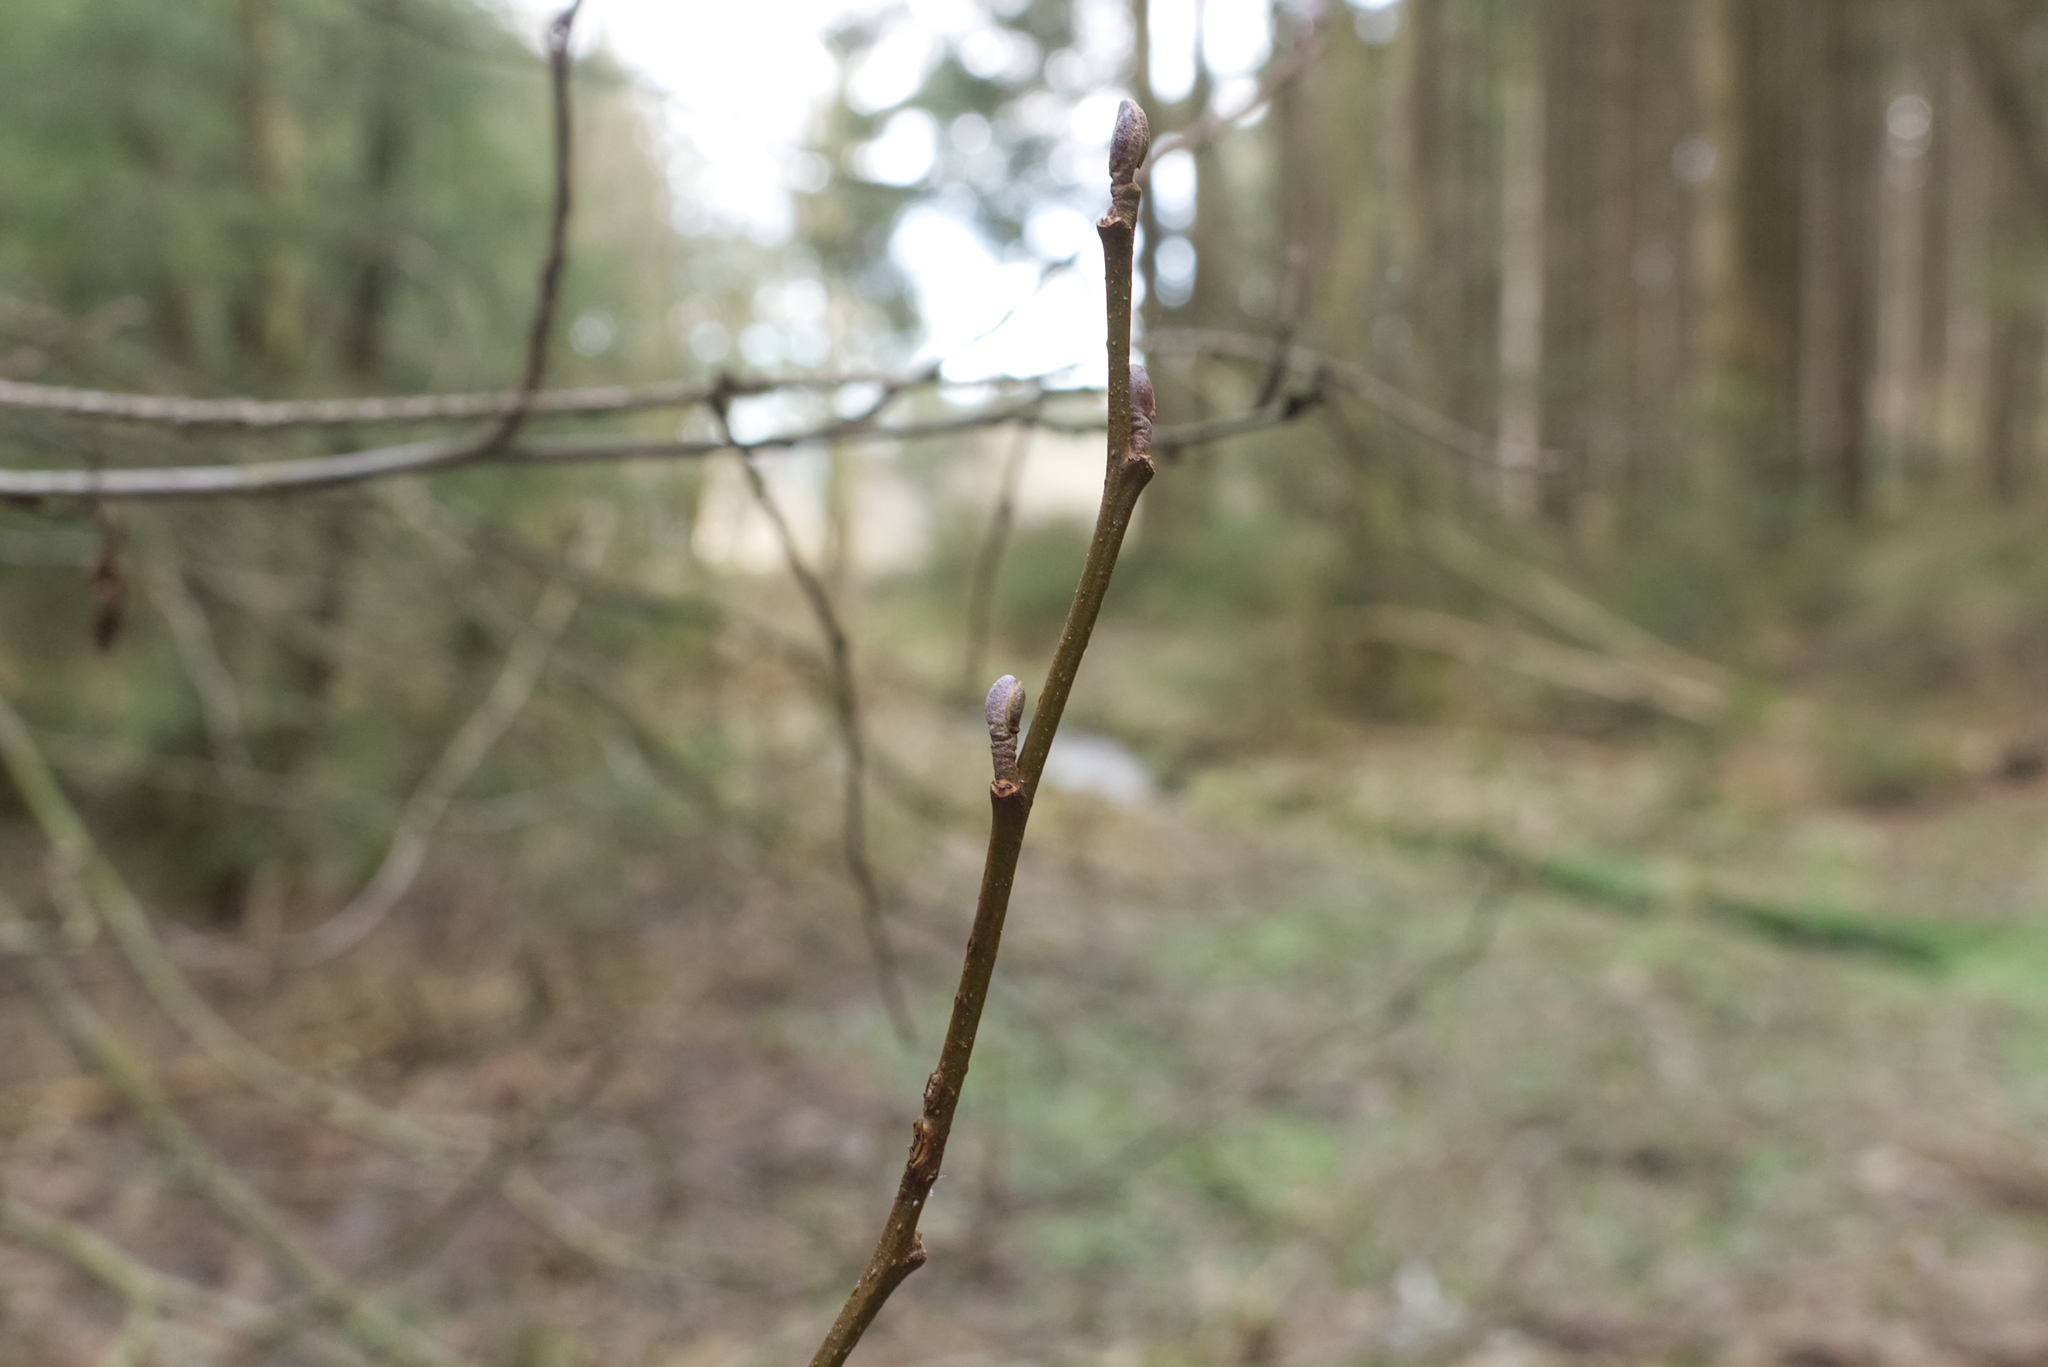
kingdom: Plantae
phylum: Tracheophyta
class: Magnoliopsida
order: Fagales
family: Betulaceae
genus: Alnus
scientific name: Alnus glutinosa
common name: Black alder
